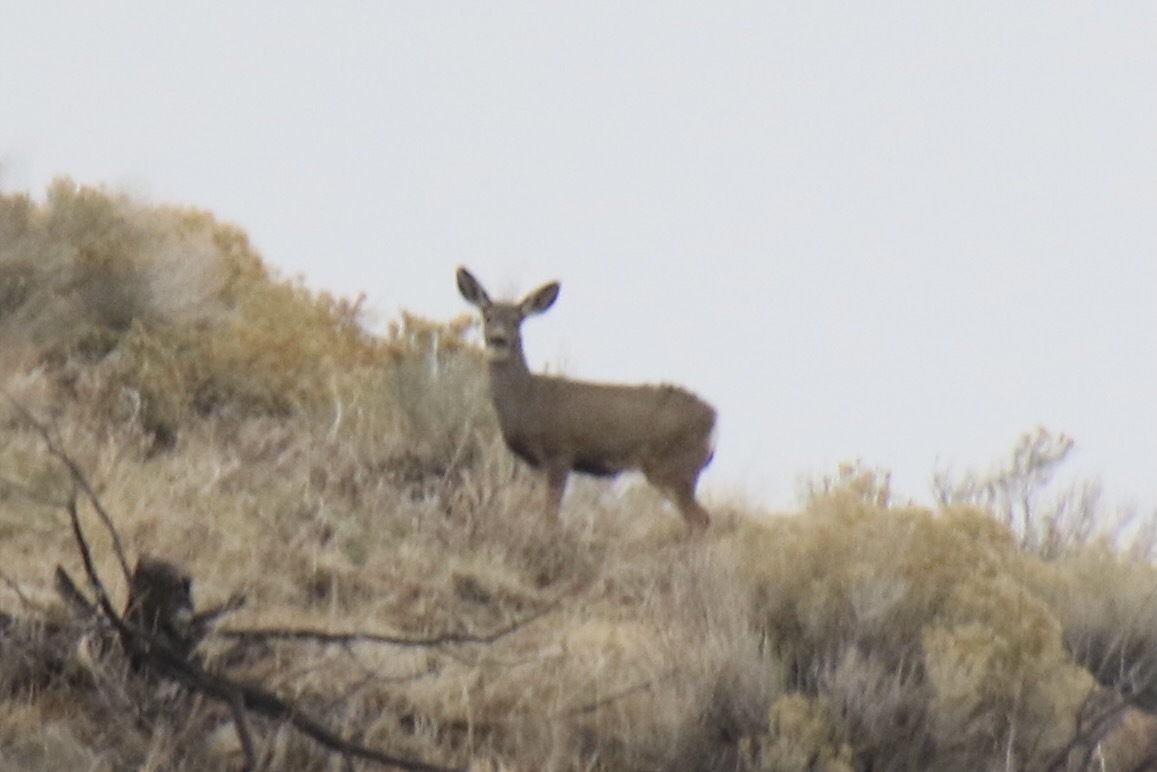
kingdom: Animalia
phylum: Chordata
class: Mammalia
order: Artiodactyla
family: Cervidae
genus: Odocoileus
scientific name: Odocoileus hemionus
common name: Mule deer
